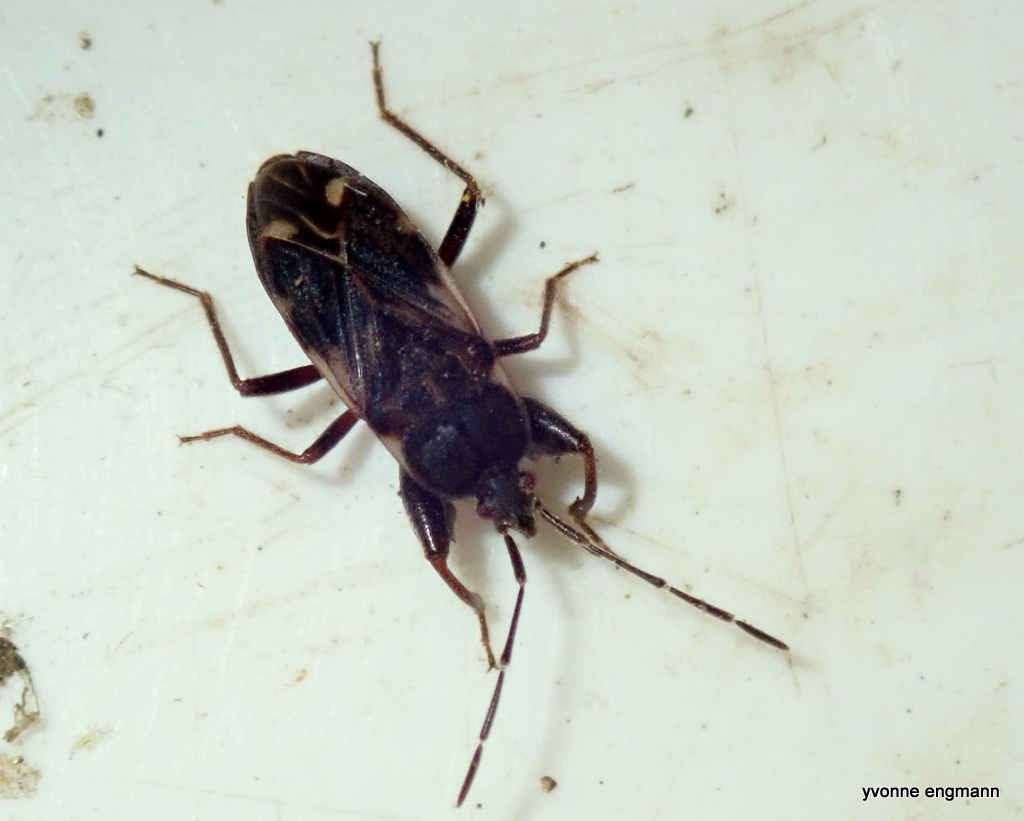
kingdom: Animalia
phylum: Arthropoda
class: Insecta
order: Hemiptera
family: Rhyparochromidae
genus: Eremocoris
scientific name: Eremocoris podagricus
